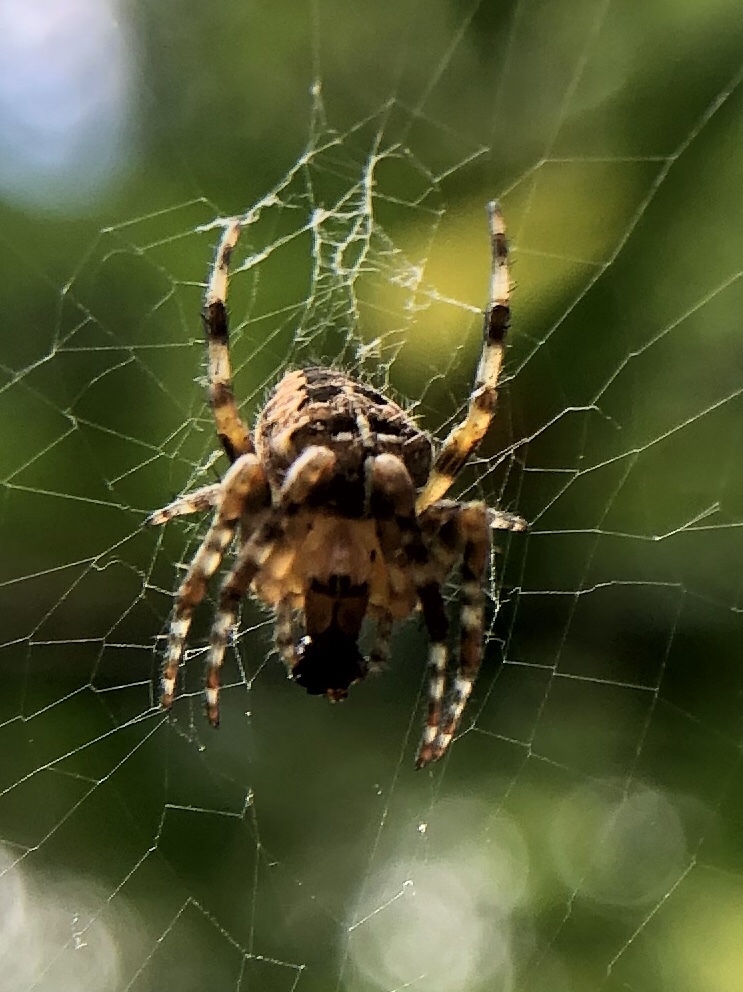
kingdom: Animalia
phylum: Arthropoda
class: Arachnida
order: Araneae
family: Araneidae
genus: Araneus
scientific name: Araneus diadematus
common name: Cross orbweaver
